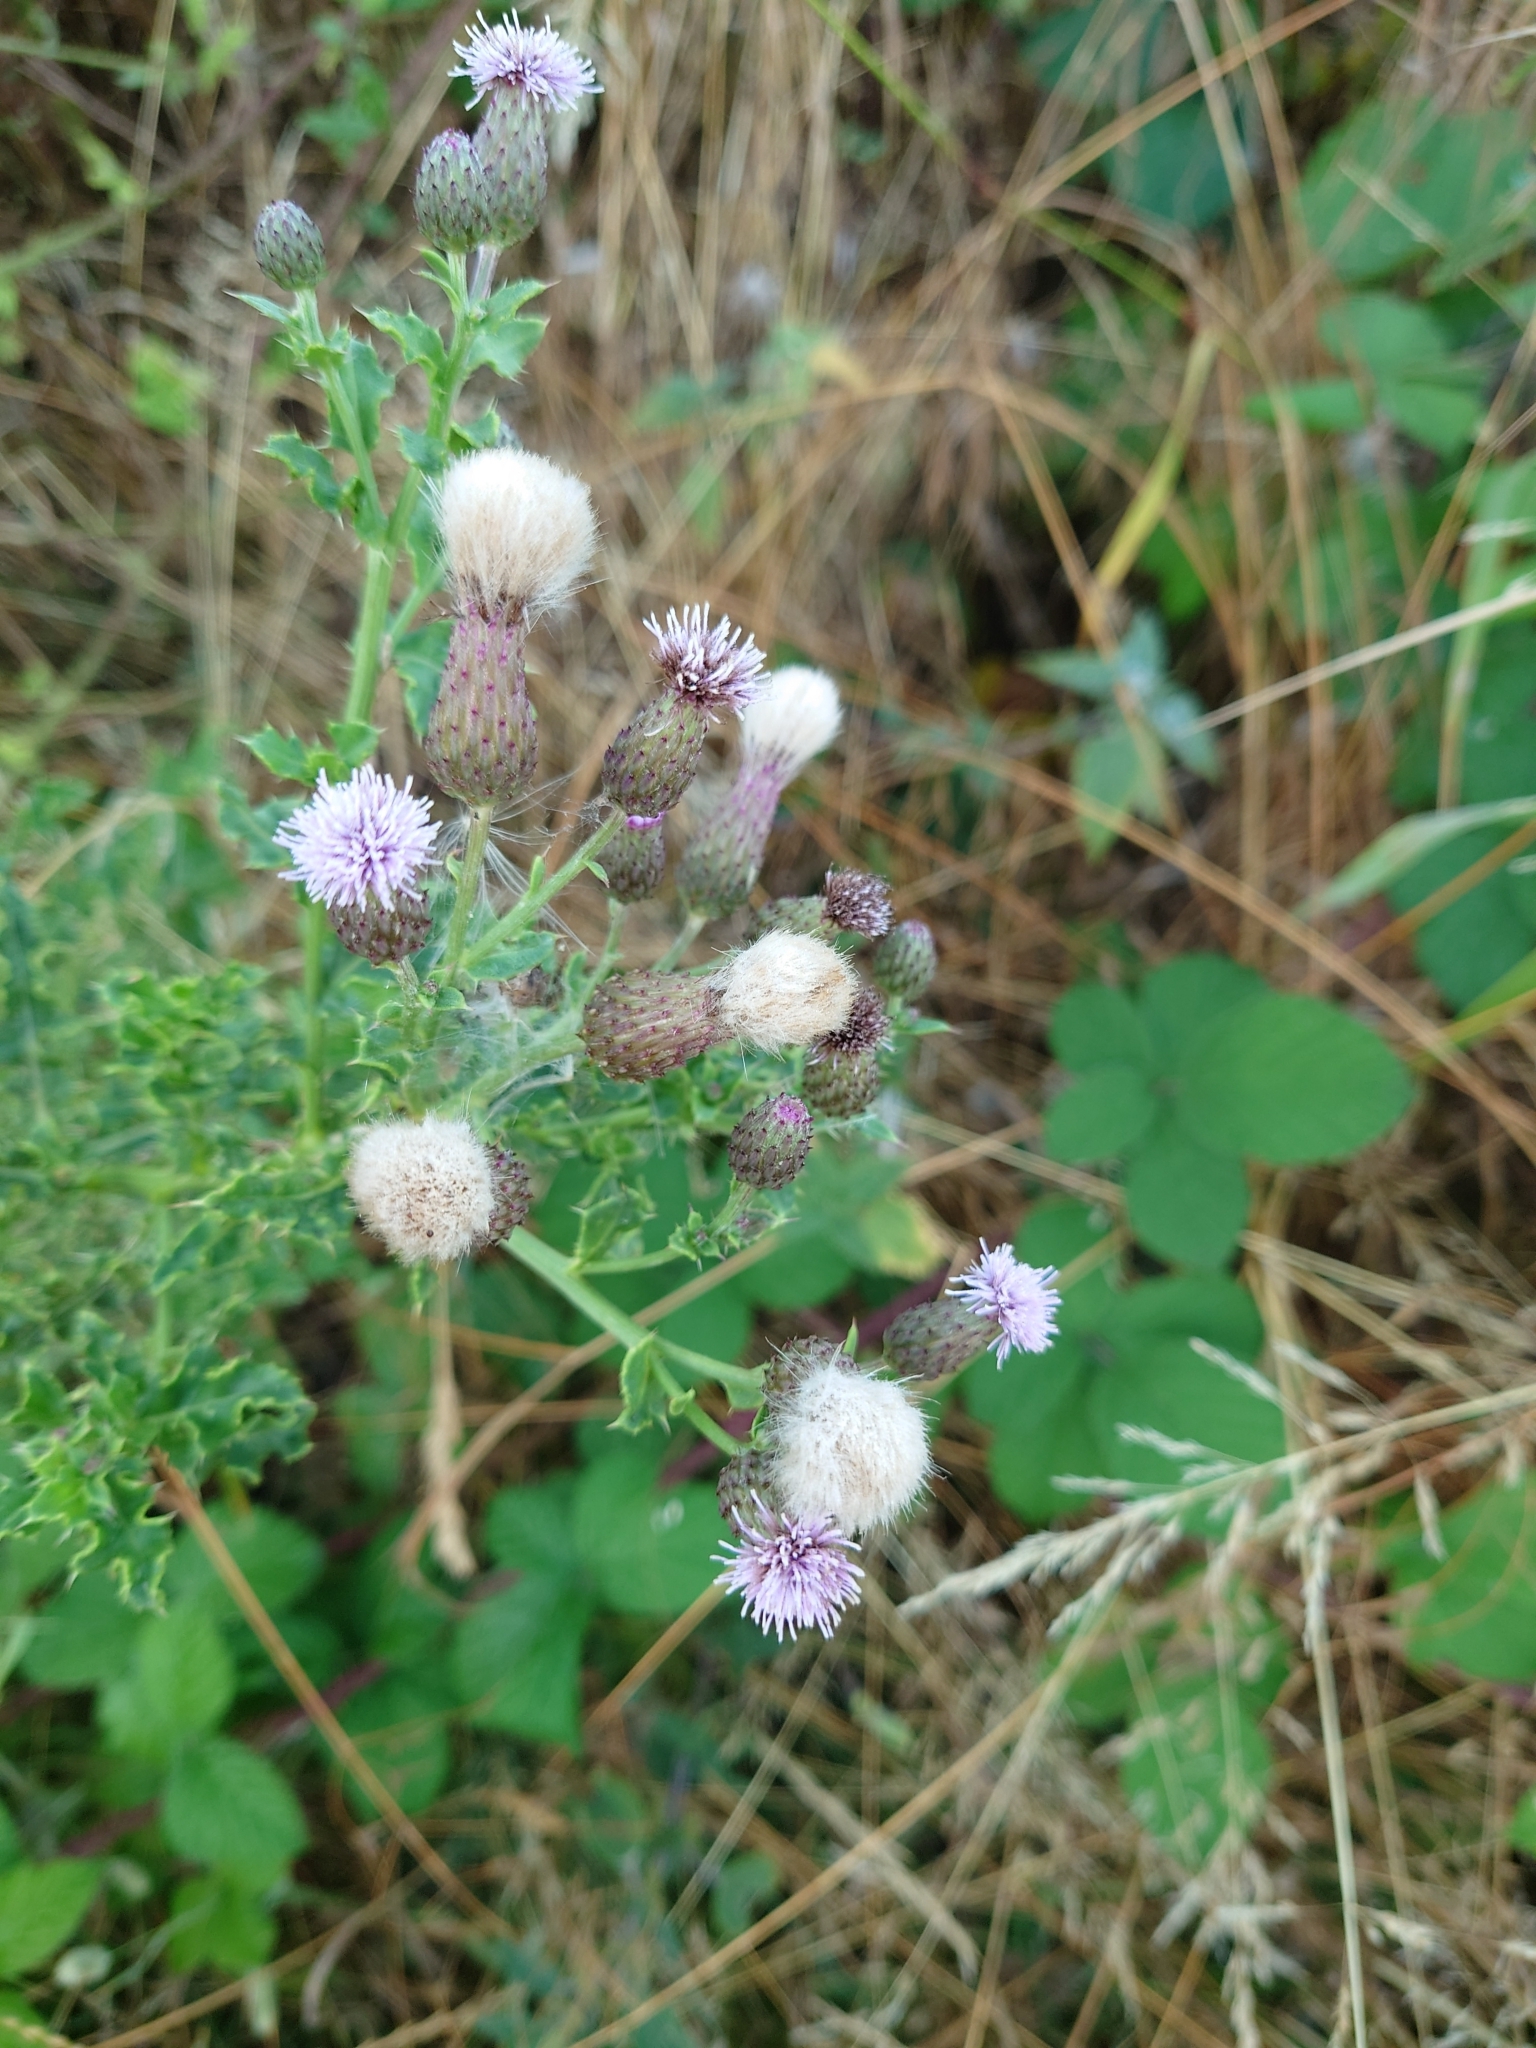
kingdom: Plantae
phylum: Tracheophyta
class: Magnoliopsida
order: Asterales
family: Asteraceae
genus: Cirsium
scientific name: Cirsium arvense
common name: Creeping thistle
